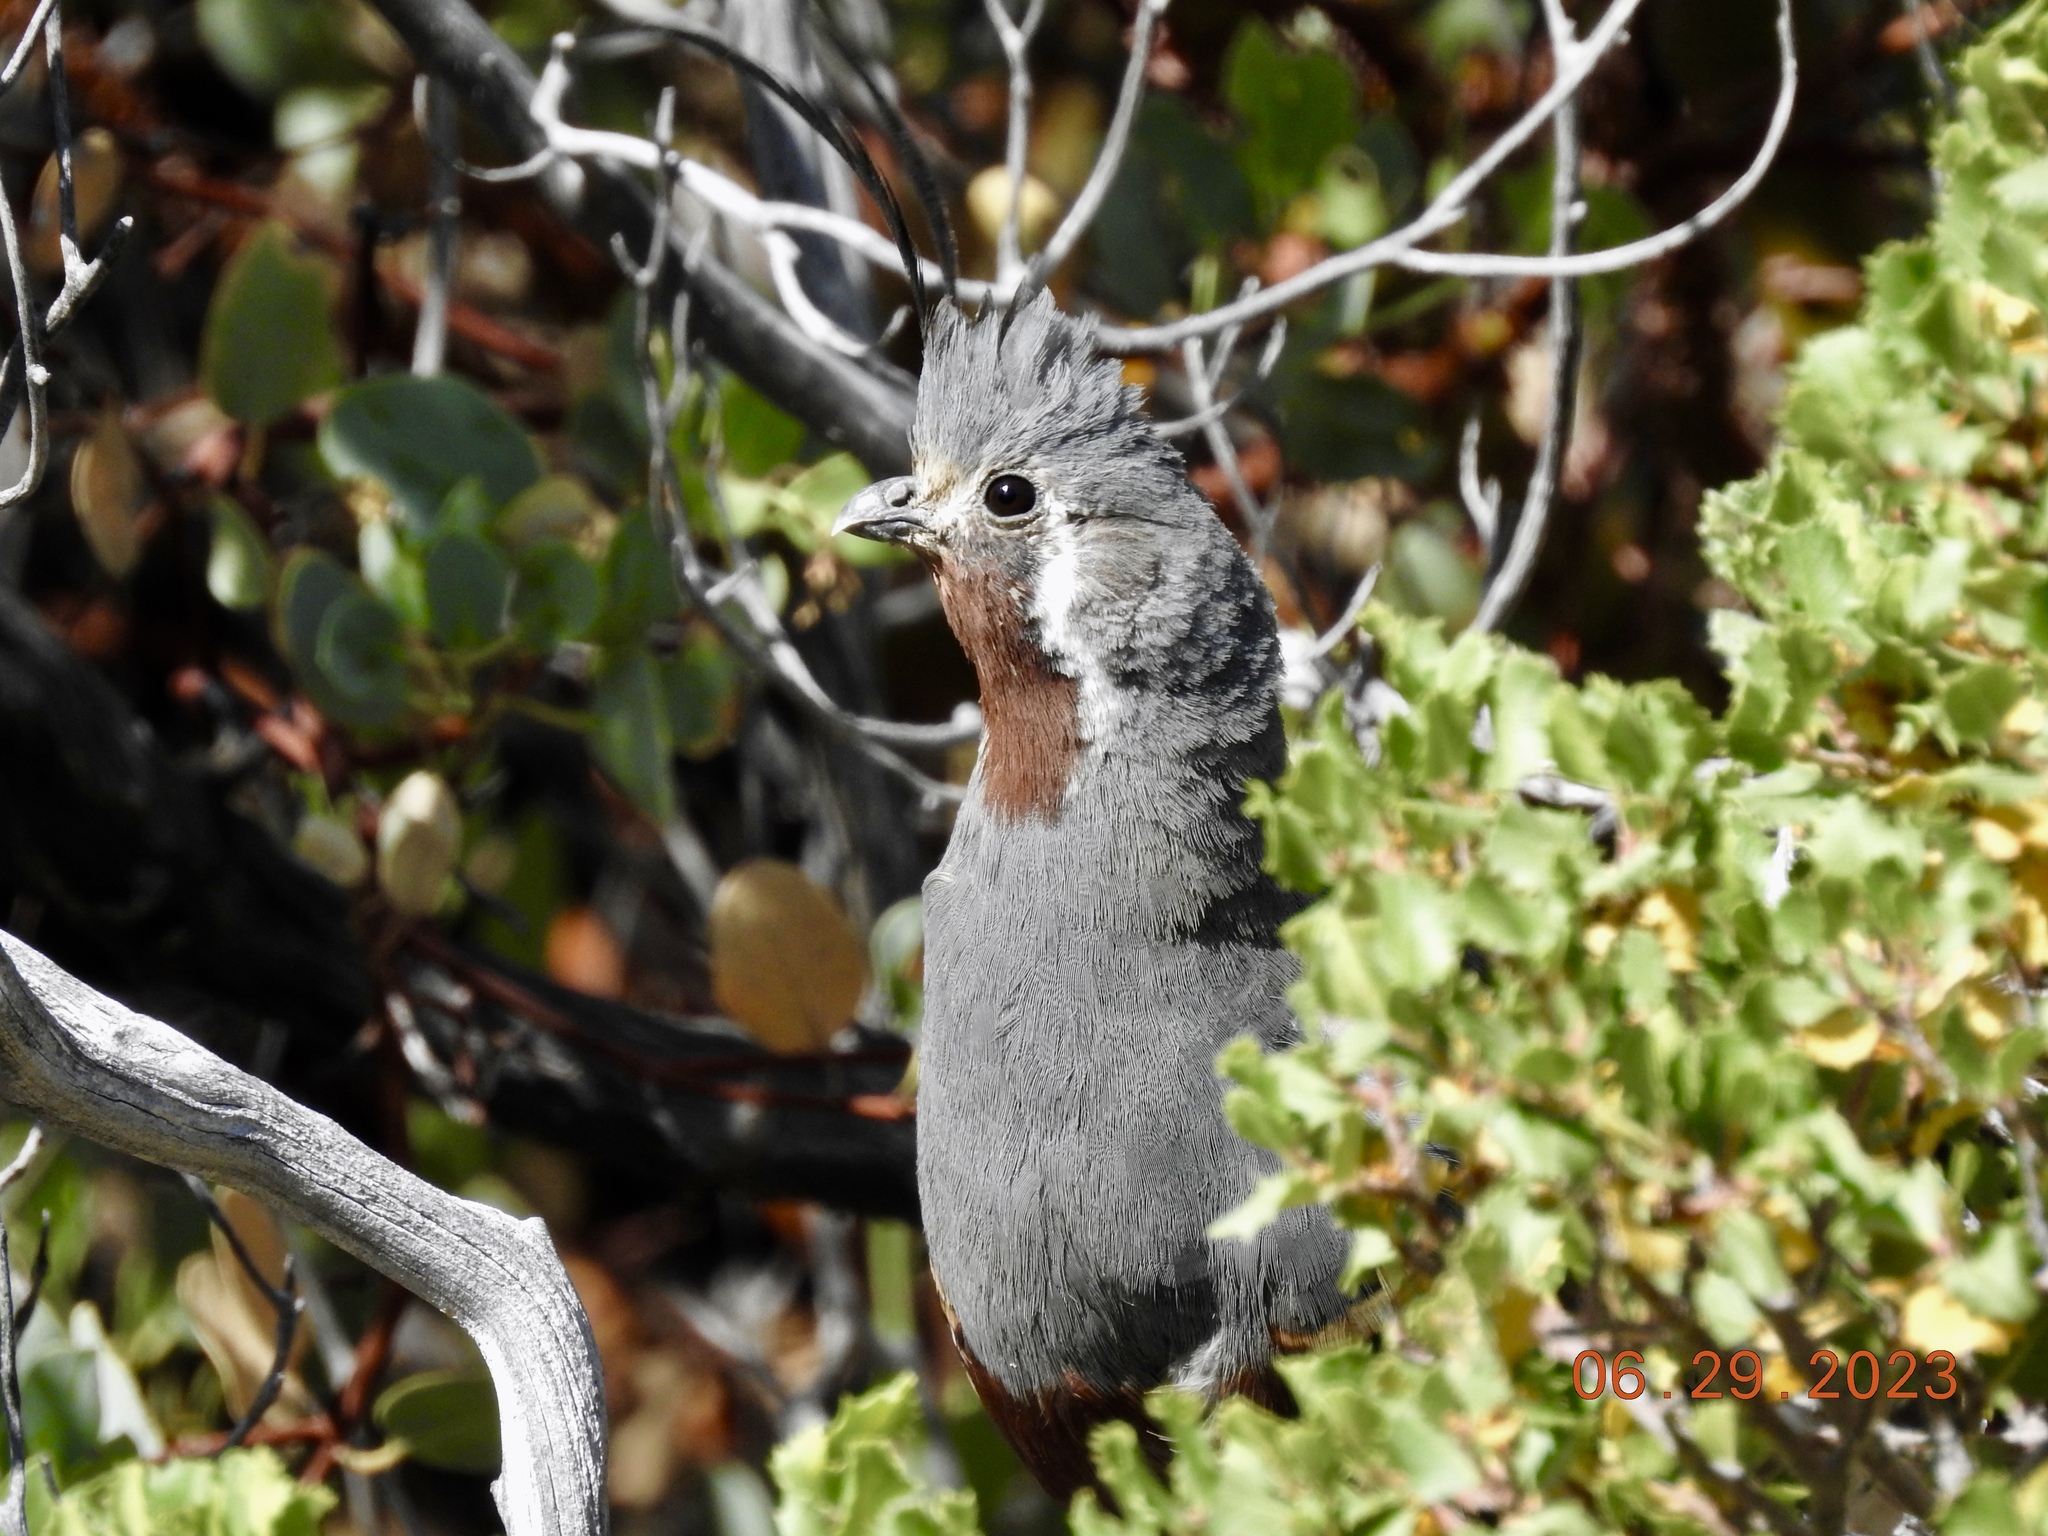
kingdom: Animalia
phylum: Chordata
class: Aves
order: Galliformes
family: Odontophoridae
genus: Oreortyx
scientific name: Oreortyx pictus
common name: Mountain quail
